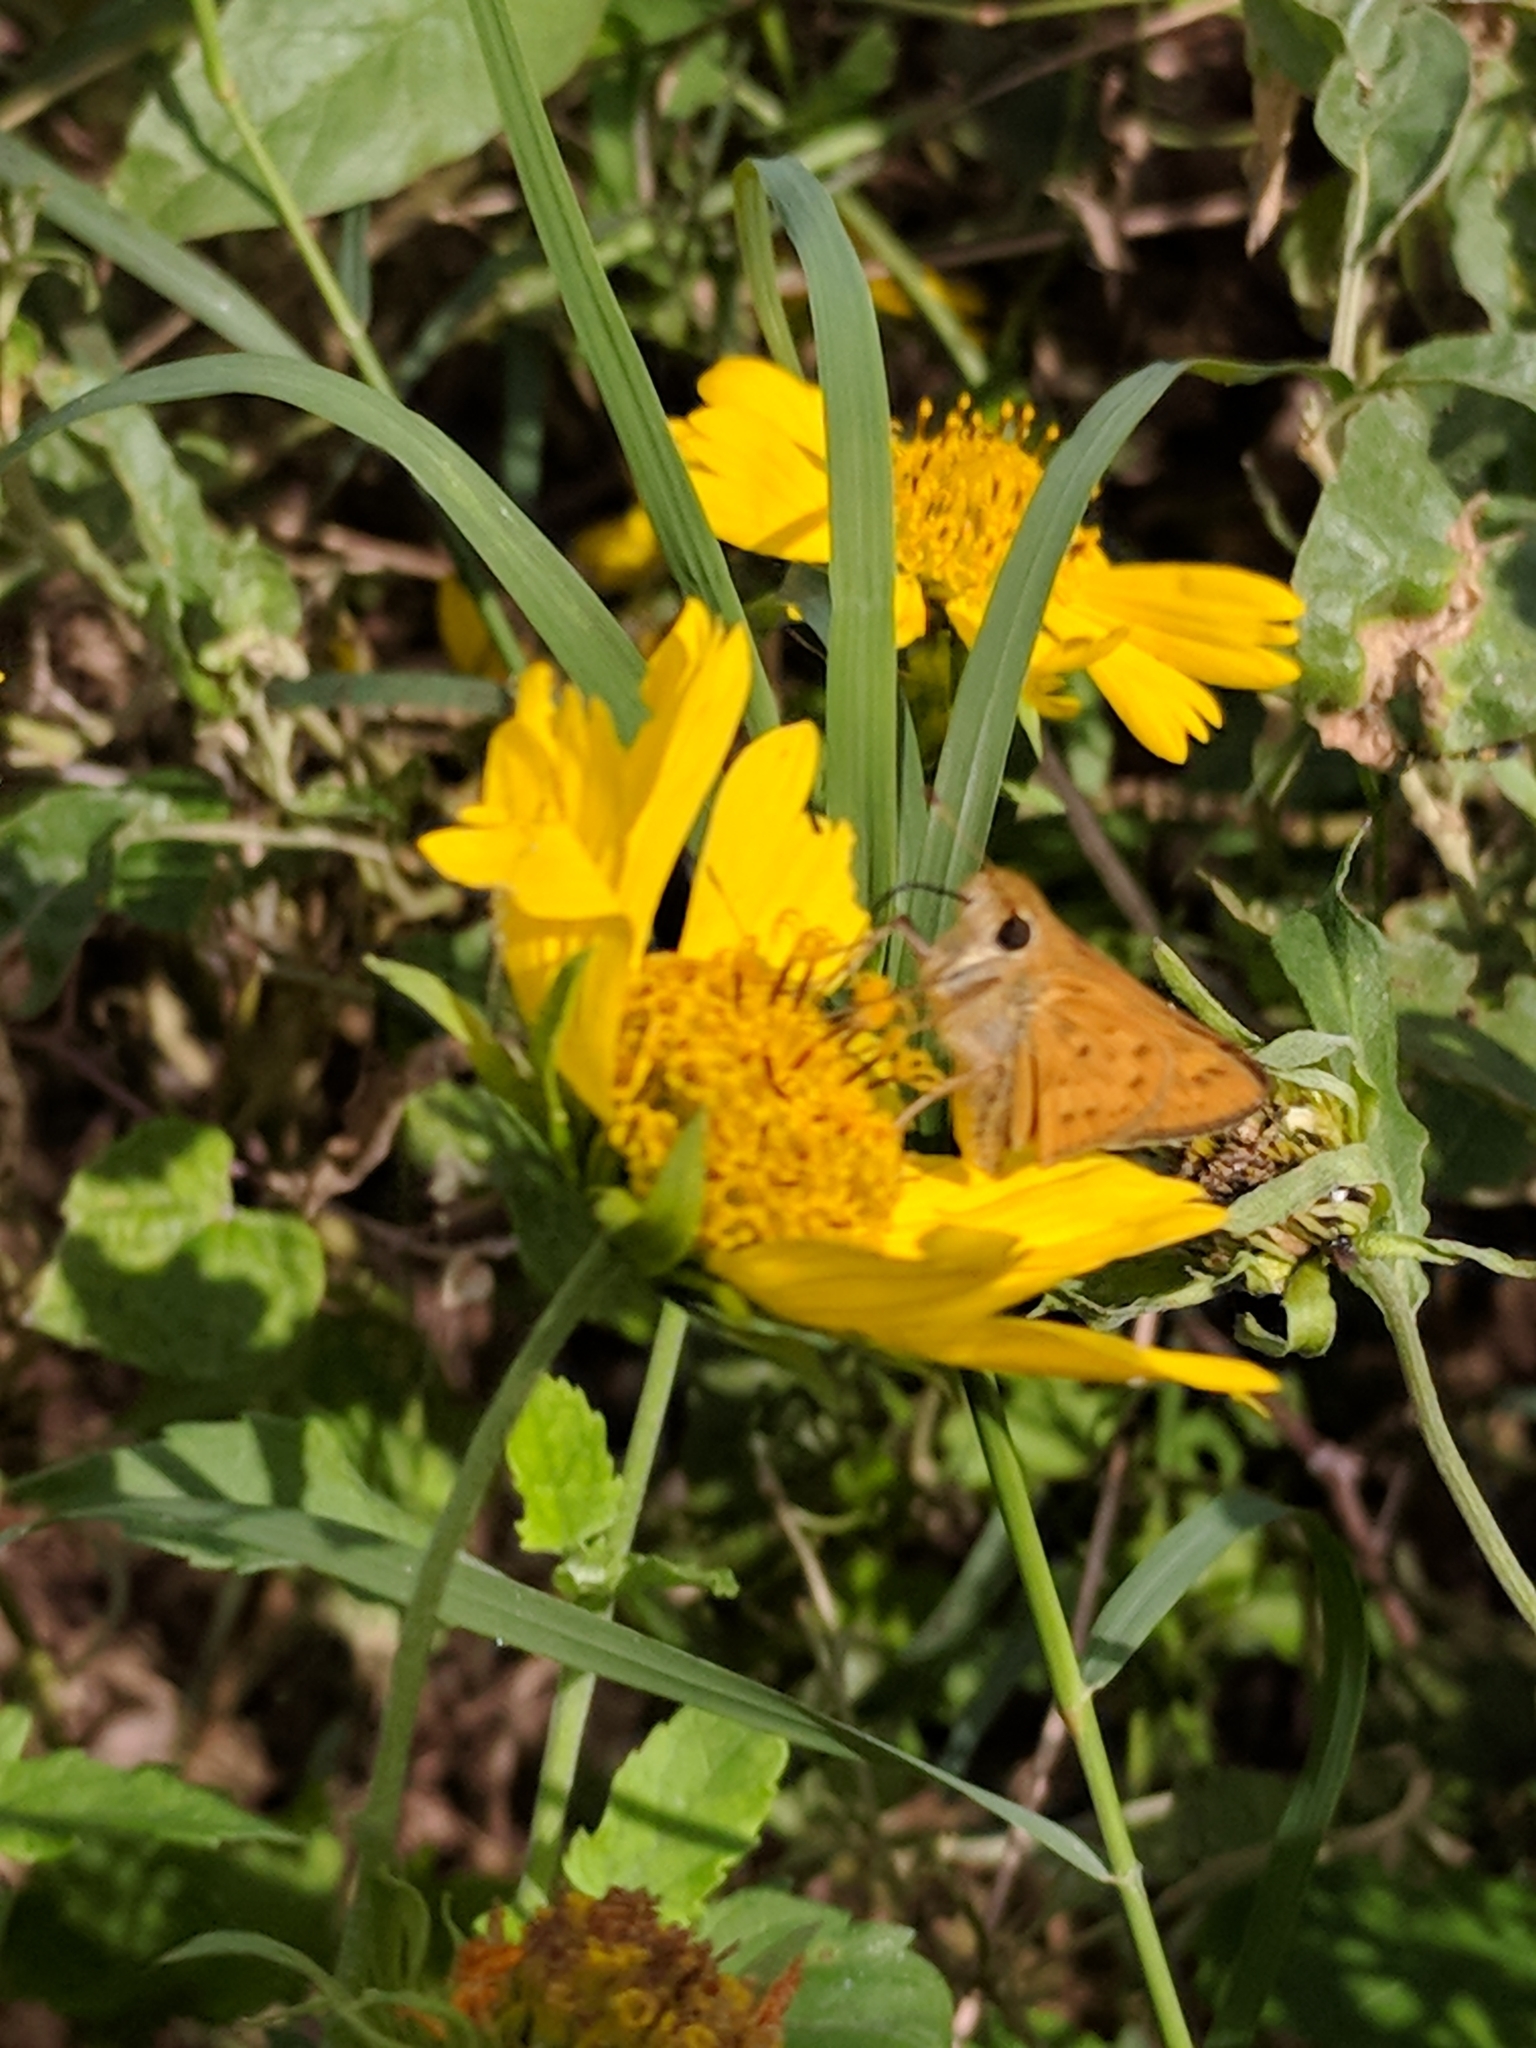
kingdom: Animalia
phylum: Arthropoda
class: Insecta
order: Lepidoptera
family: Hesperiidae
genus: Hylephila
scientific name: Hylephila phyleus
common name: Fiery skipper
